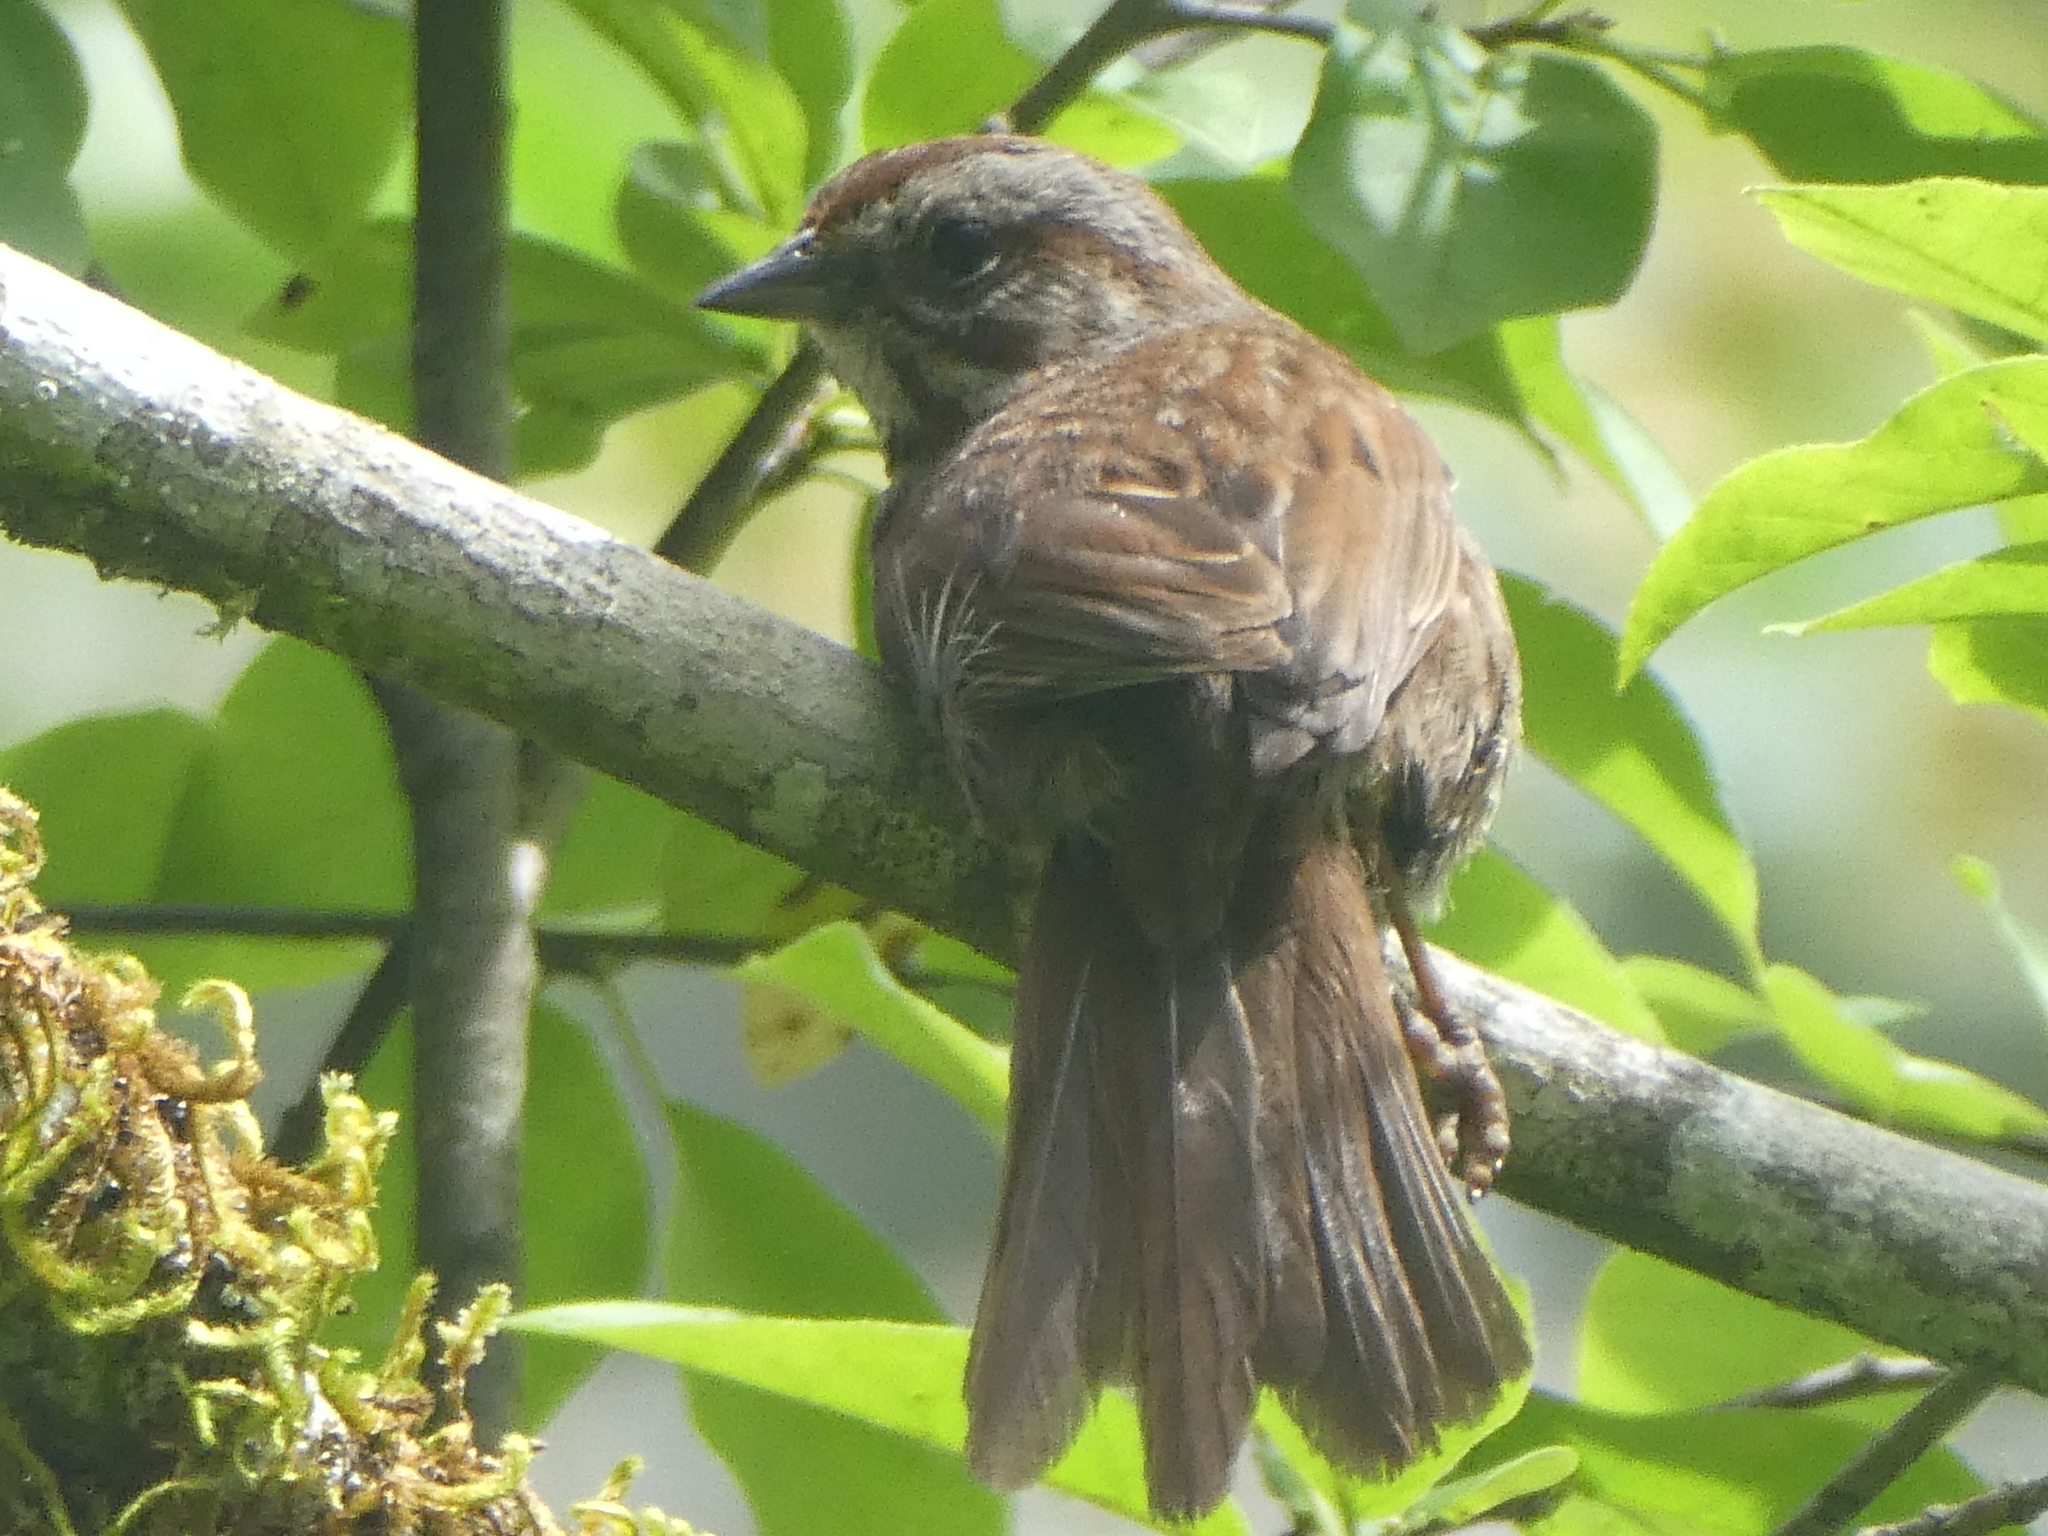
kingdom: Animalia
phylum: Chordata
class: Aves
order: Passeriformes
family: Passerellidae
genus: Melospiza
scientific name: Melospiza melodia
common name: Song sparrow
